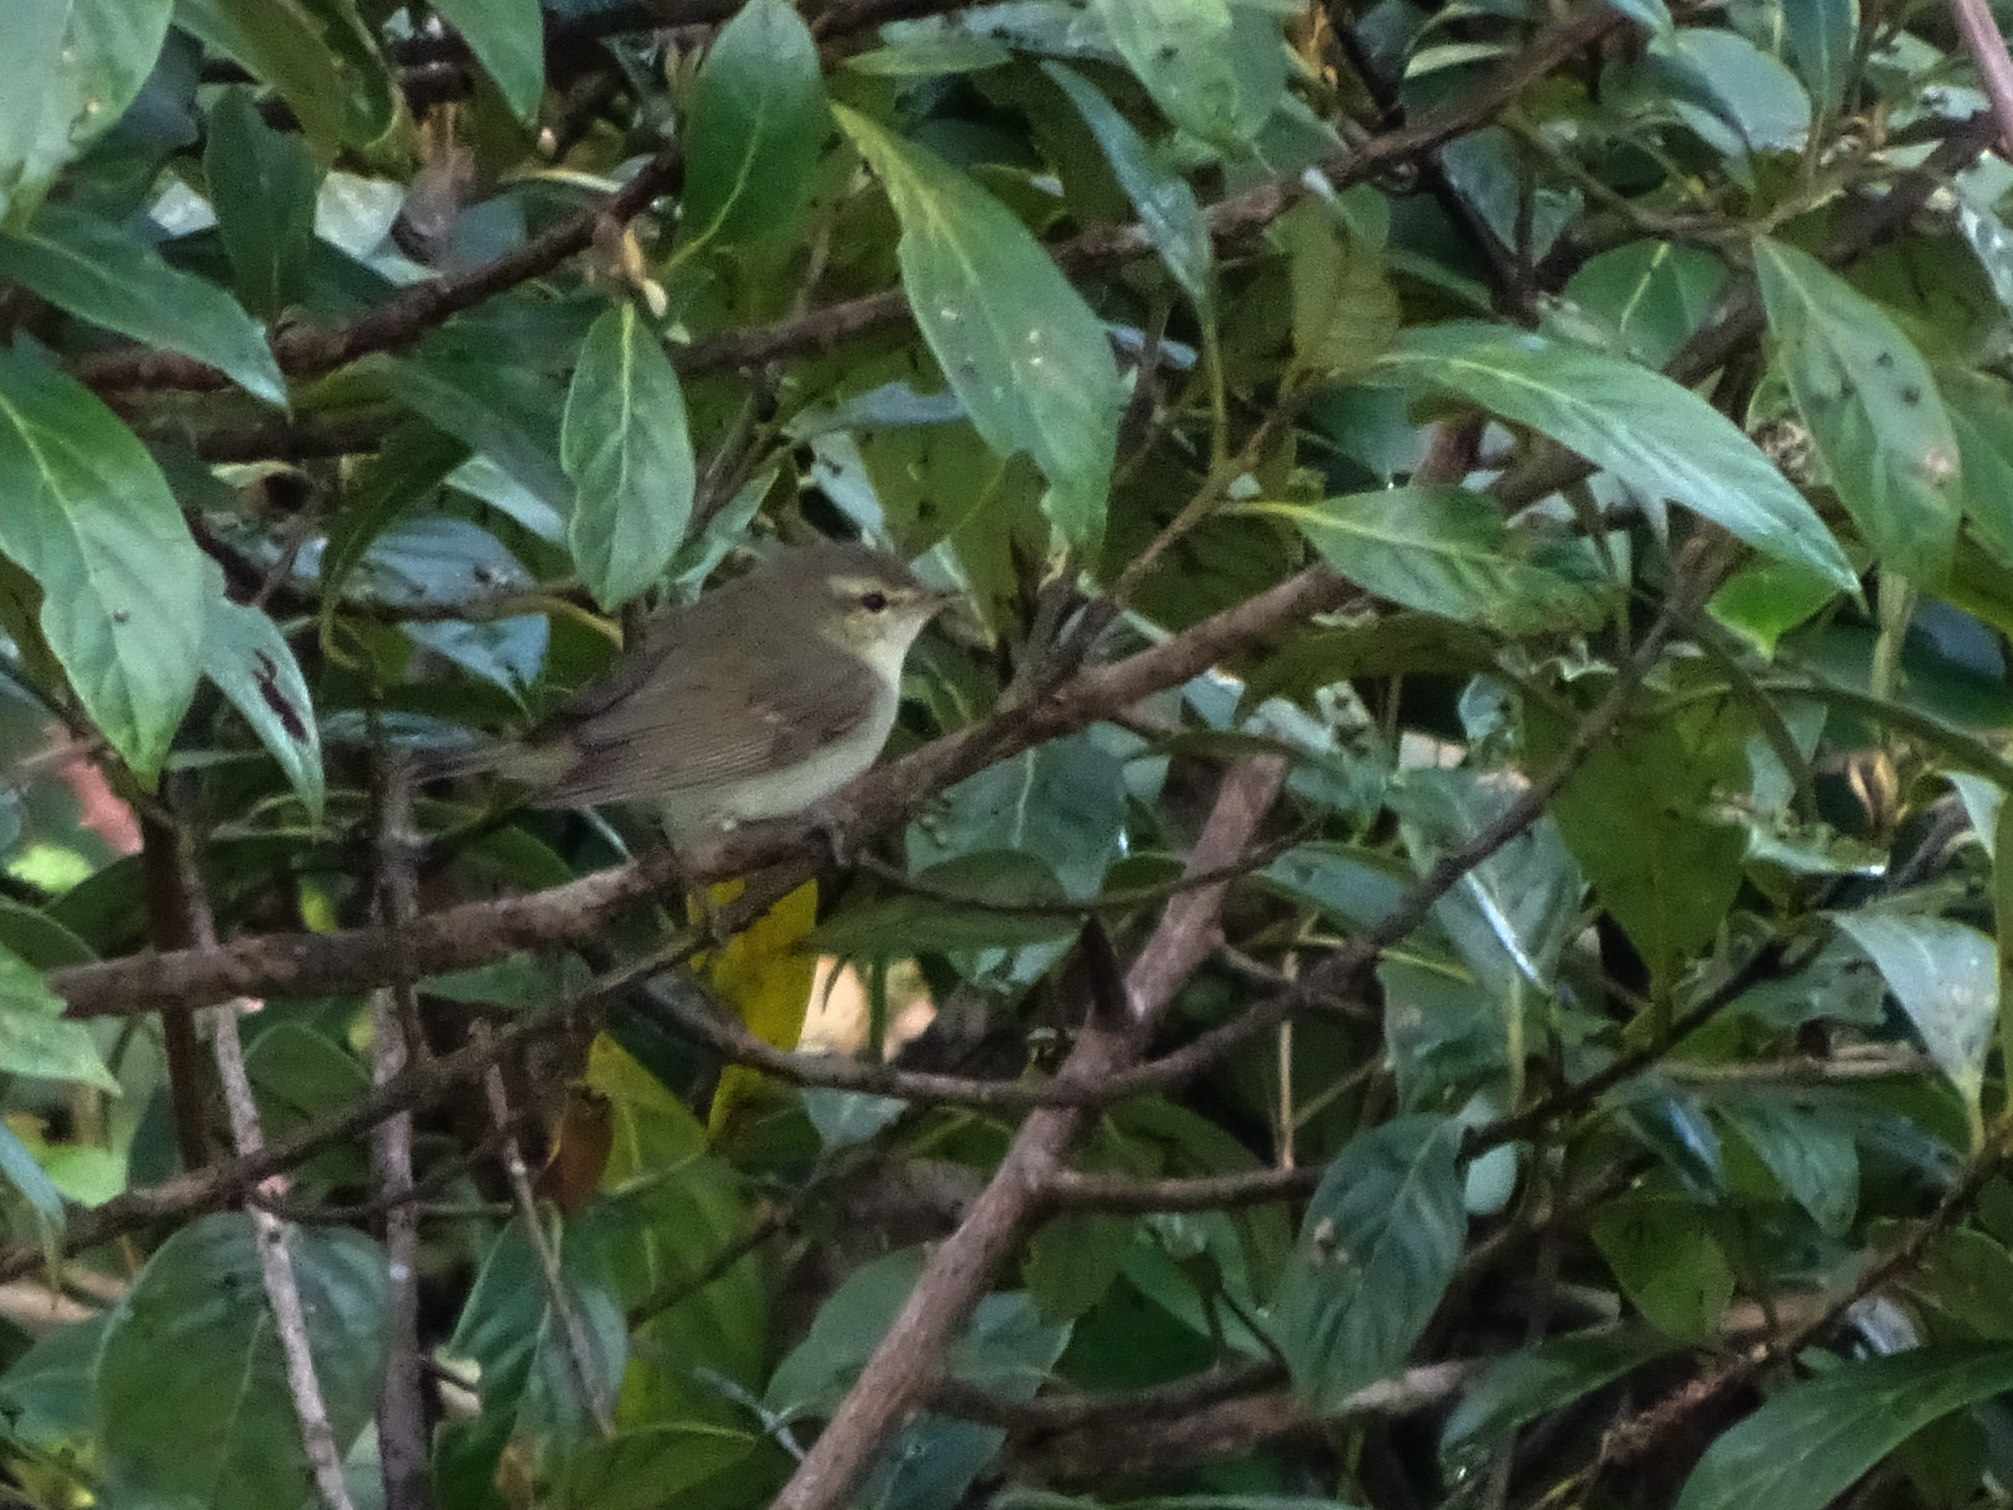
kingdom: Animalia
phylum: Chordata
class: Aves
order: Passeriformes
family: Acrocephalidae
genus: Acrocephalus
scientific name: Acrocephalus dumetorum
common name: Blyth's reed warbler
